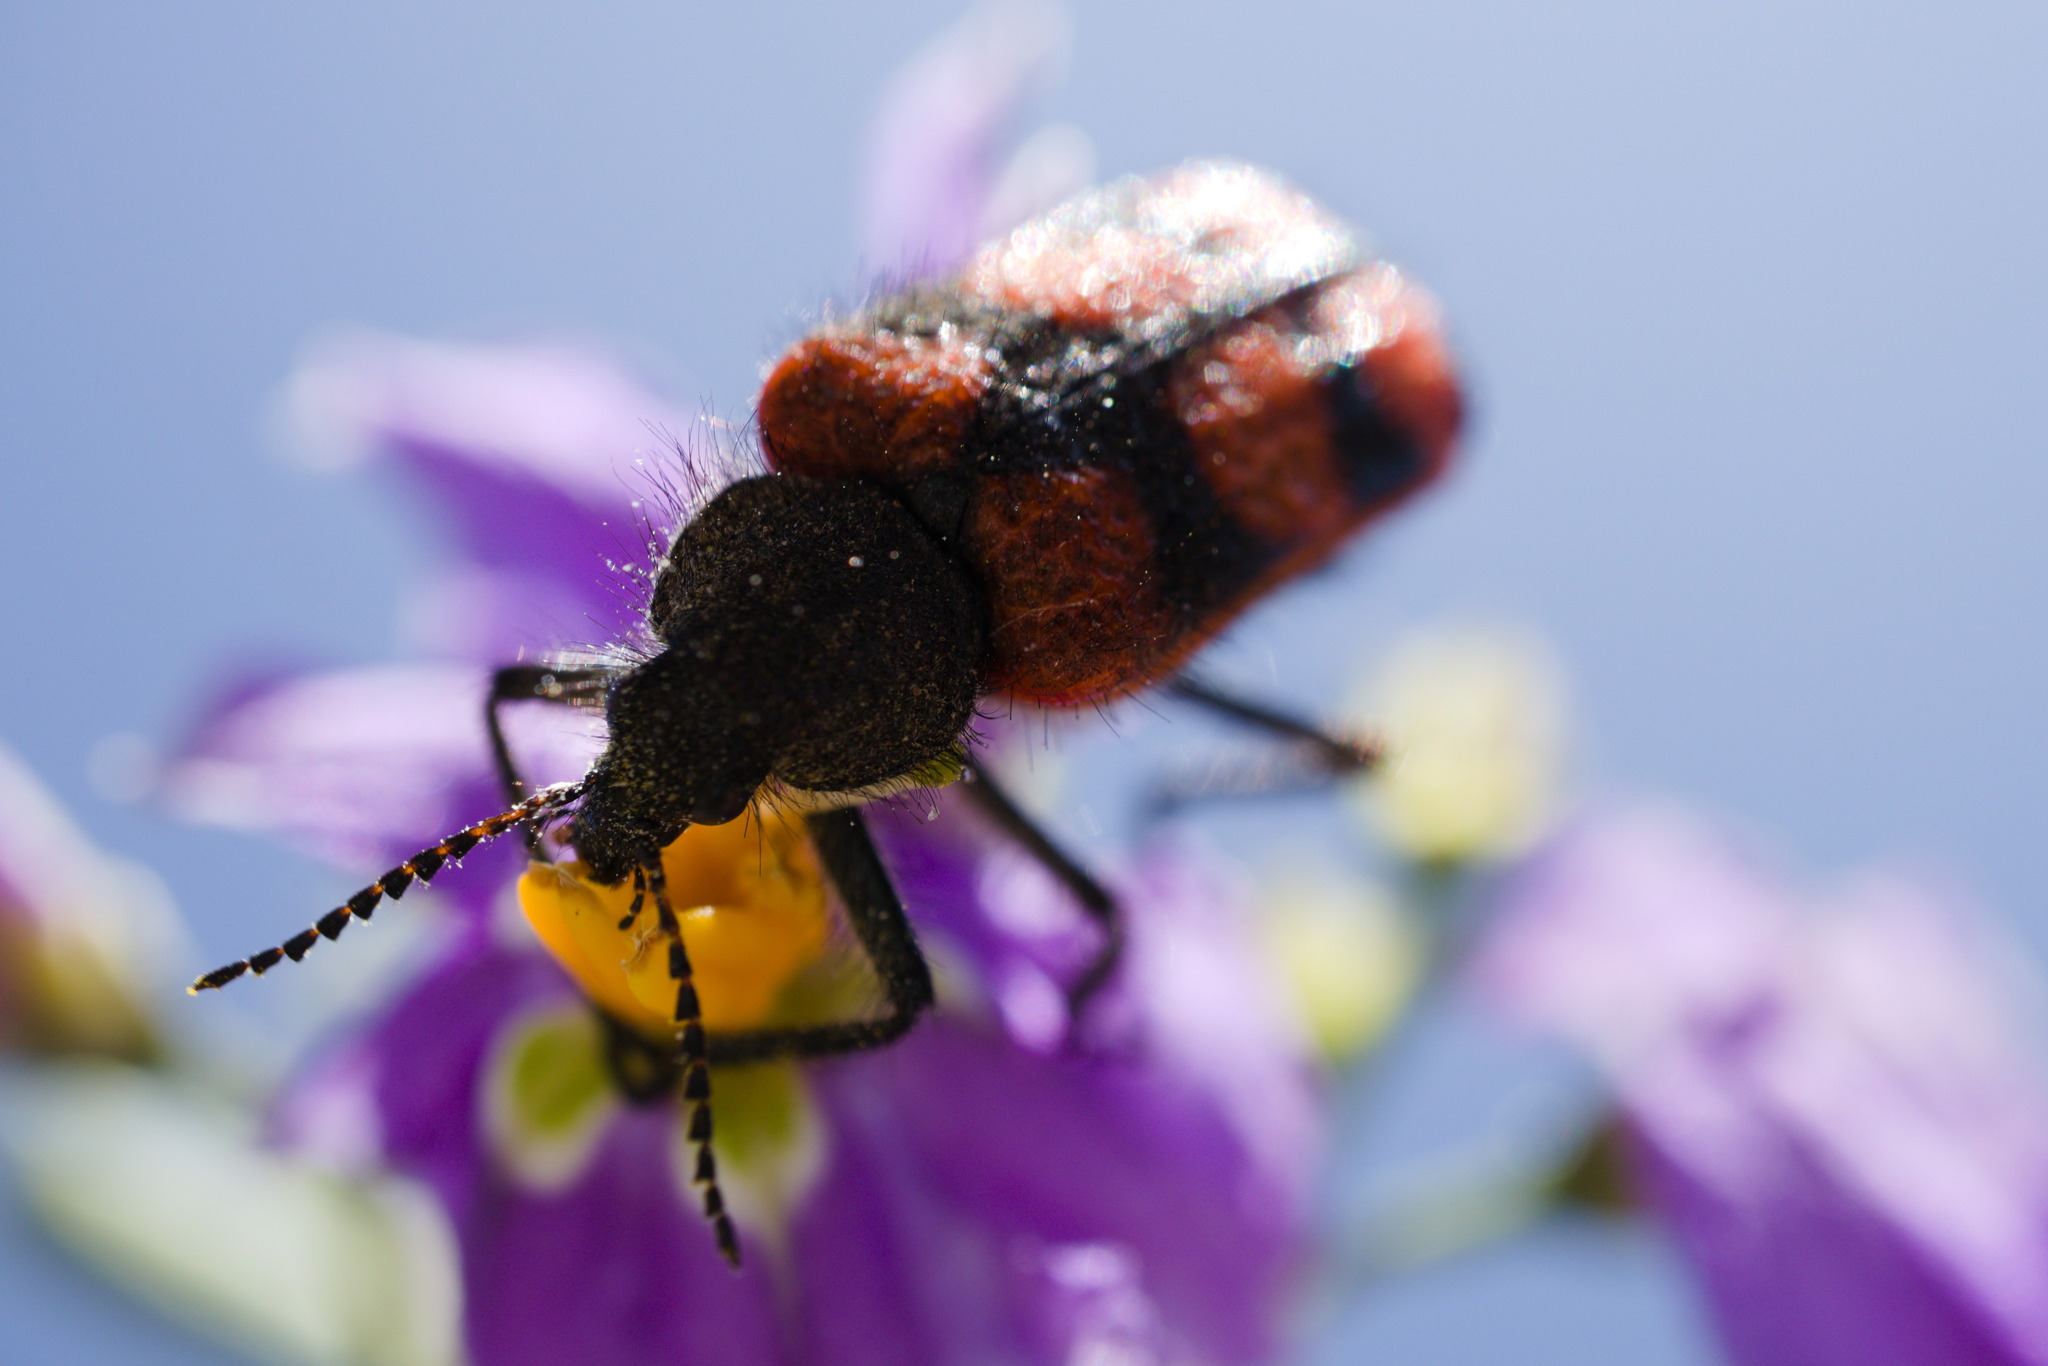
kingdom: Animalia
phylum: Arthropoda
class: Insecta
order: Coleoptera
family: Melyridae
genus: Astylus
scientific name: Astylus
